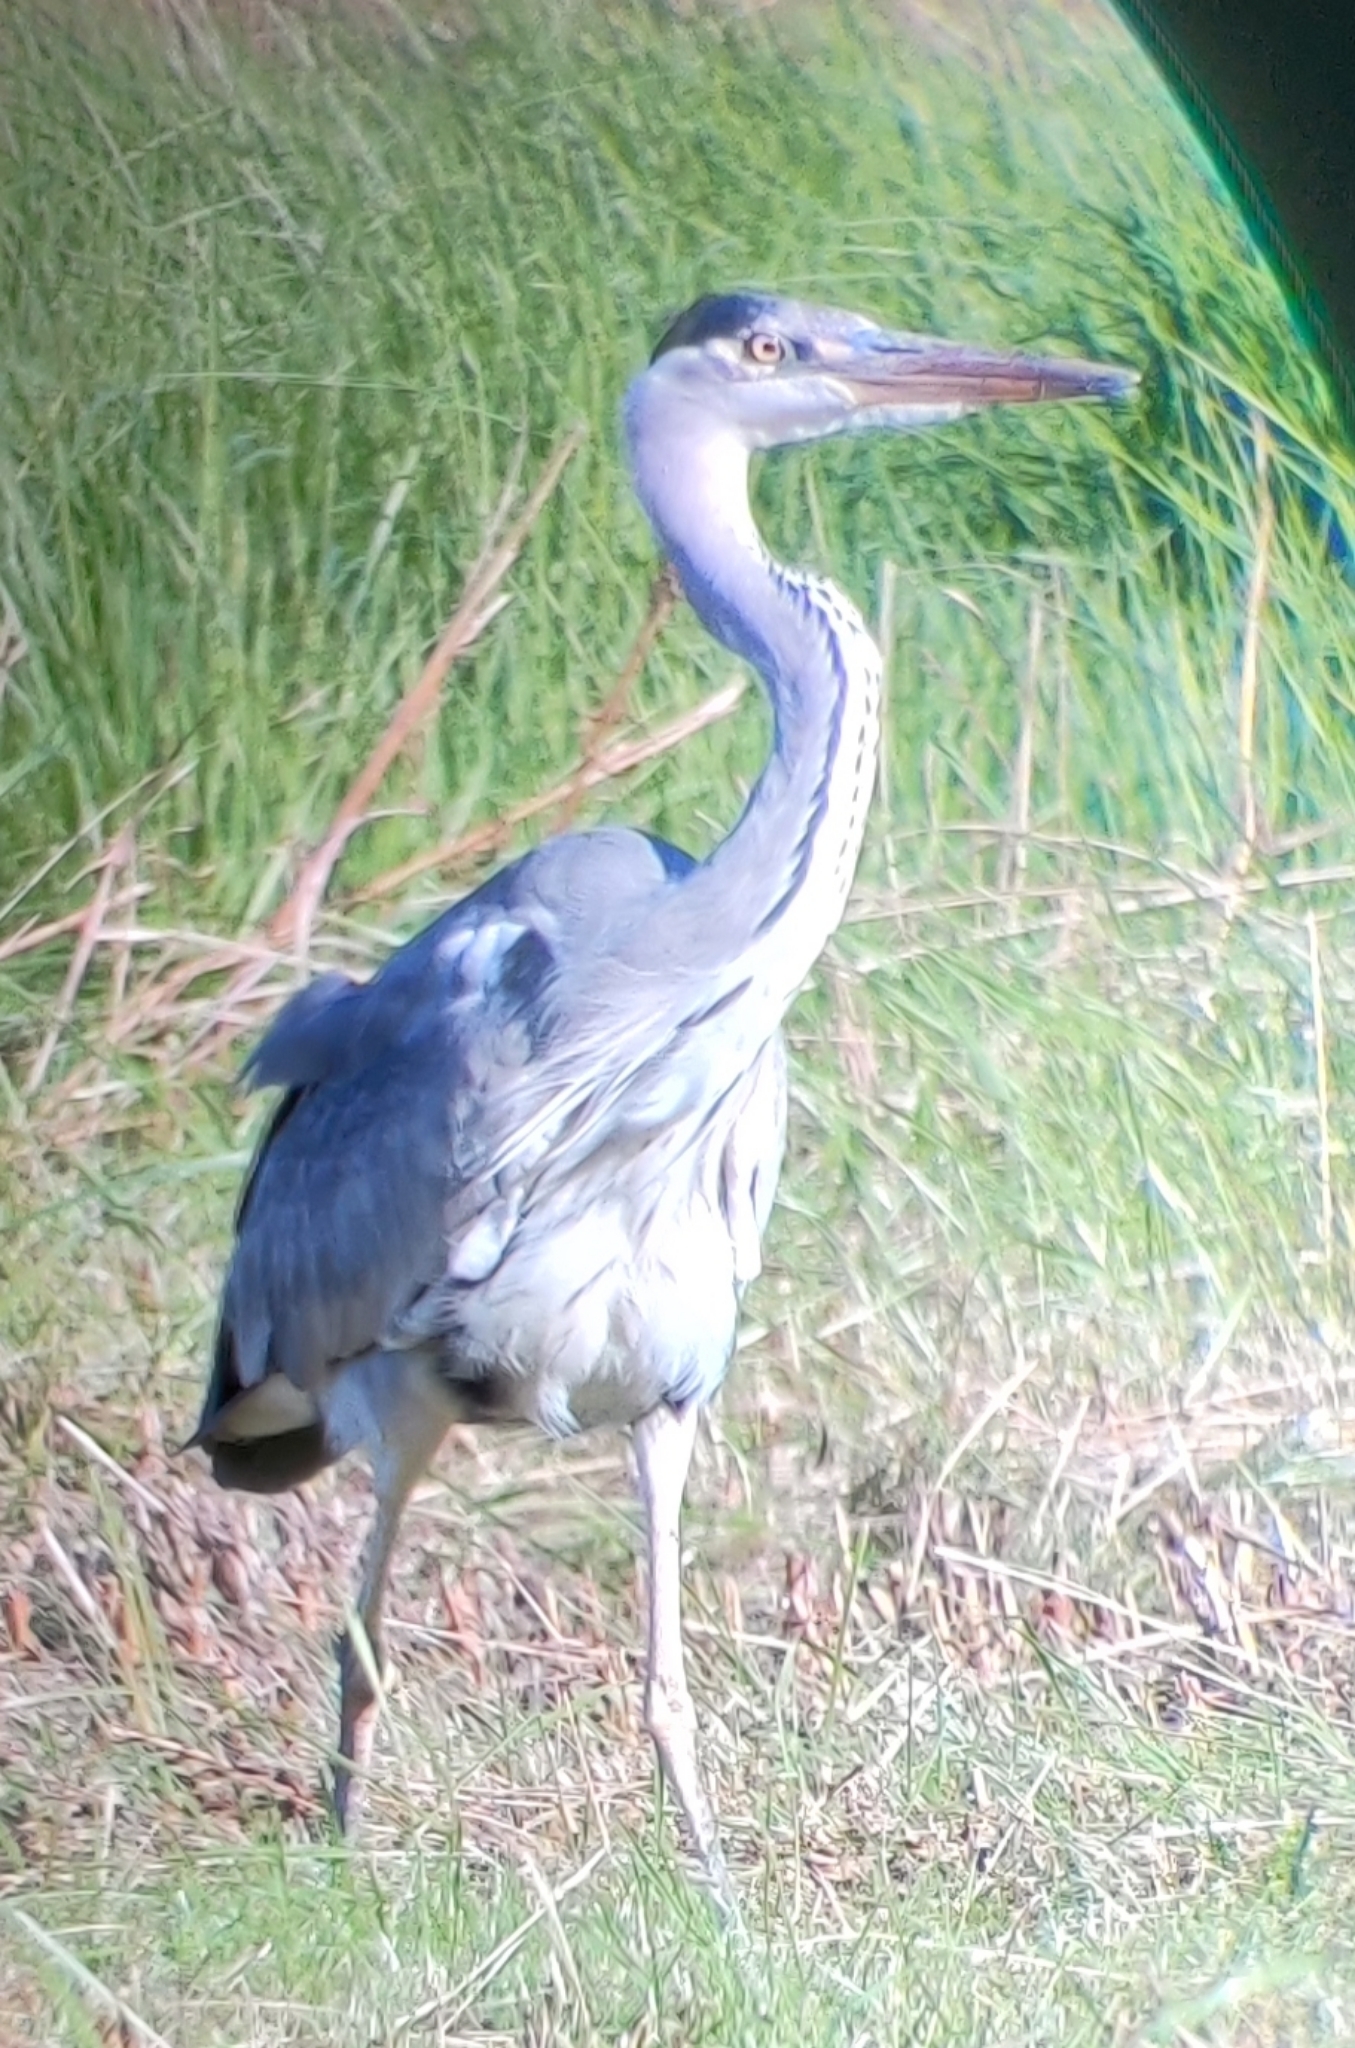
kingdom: Animalia
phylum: Chordata
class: Aves
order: Pelecaniformes
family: Ardeidae
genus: Ardea
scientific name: Ardea cinerea
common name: Grey heron
